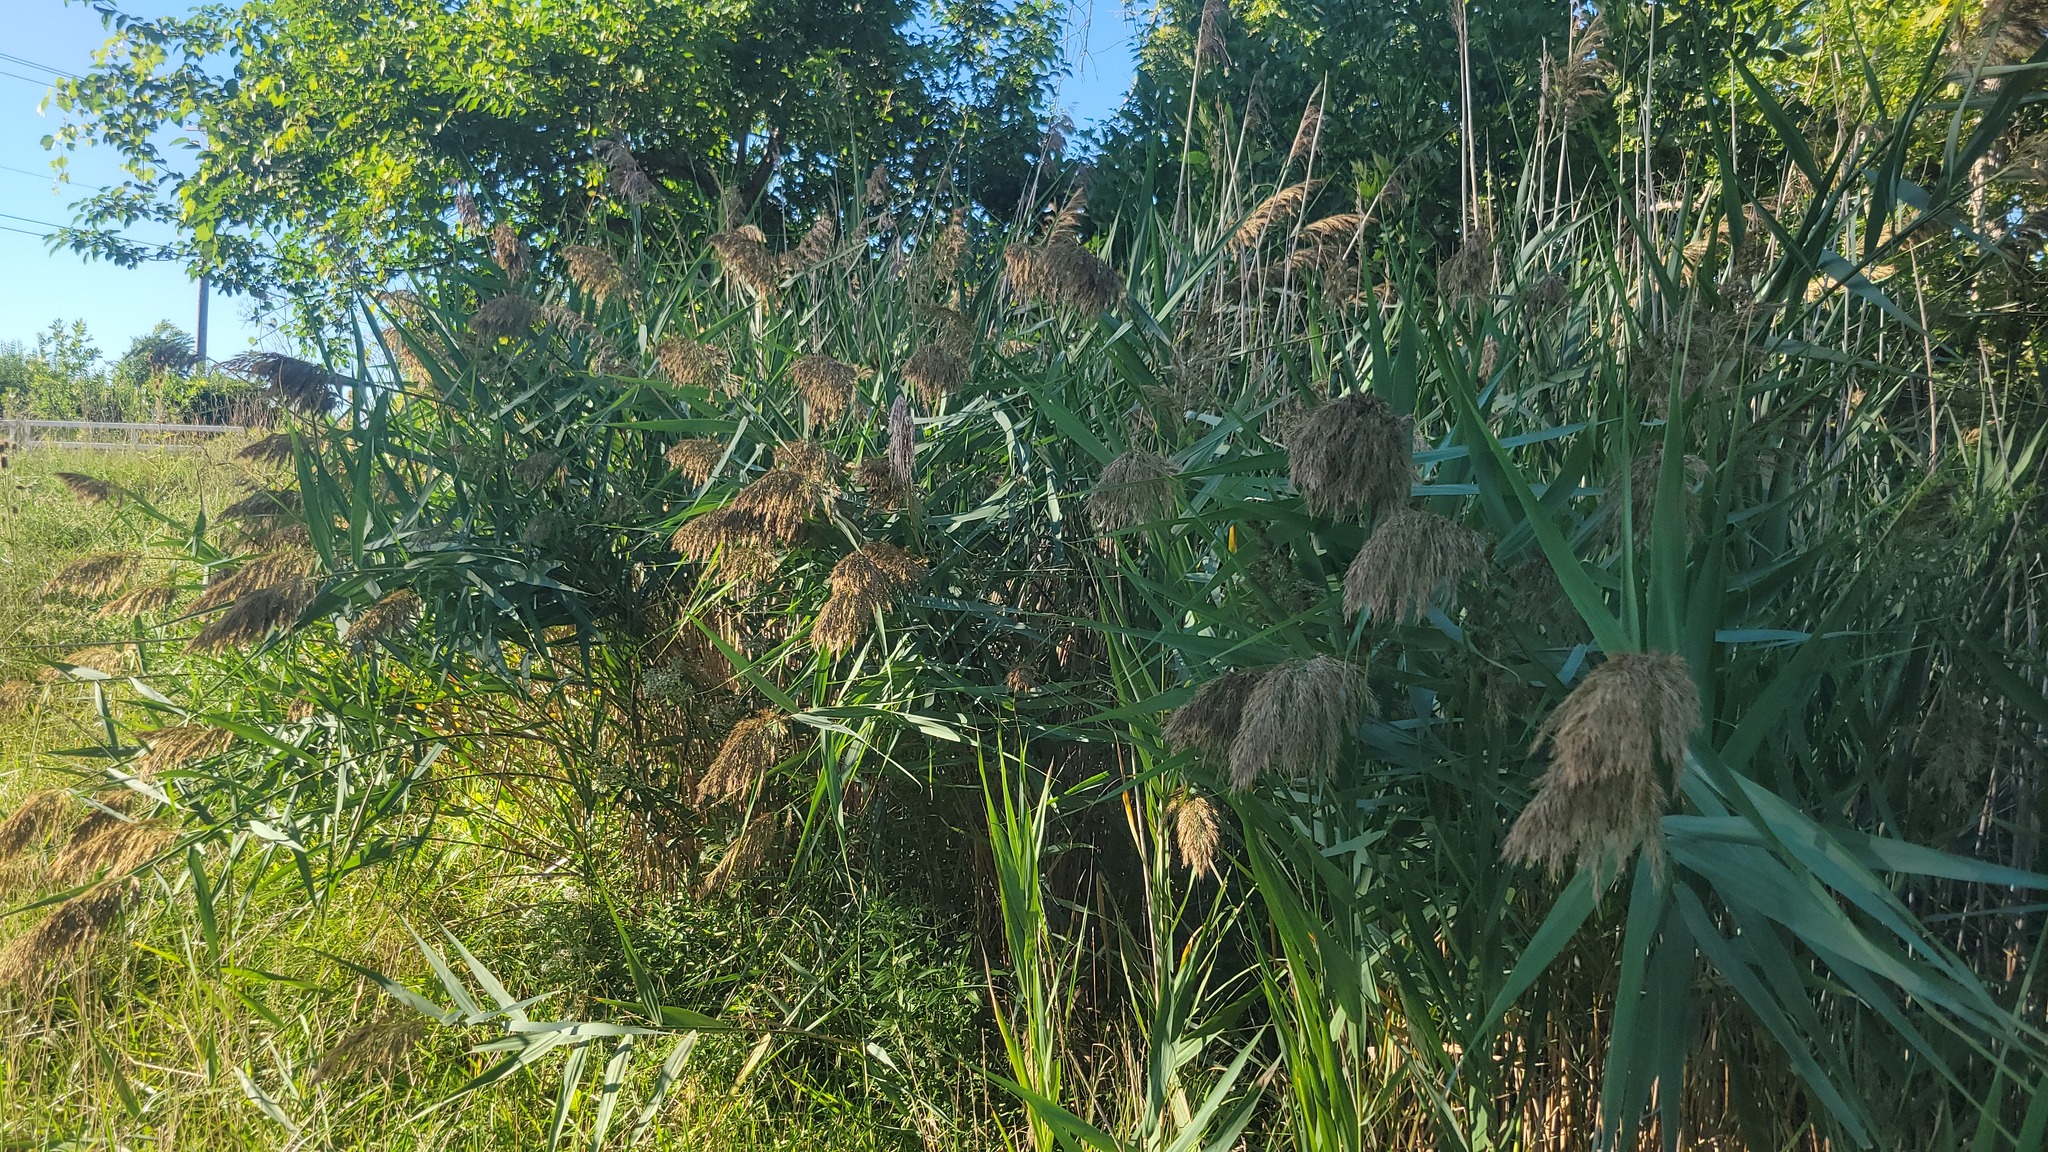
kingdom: Plantae
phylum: Tracheophyta
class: Liliopsida
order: Poales
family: Poaceae
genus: Phragmites
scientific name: Phragmites australis
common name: Common reed
